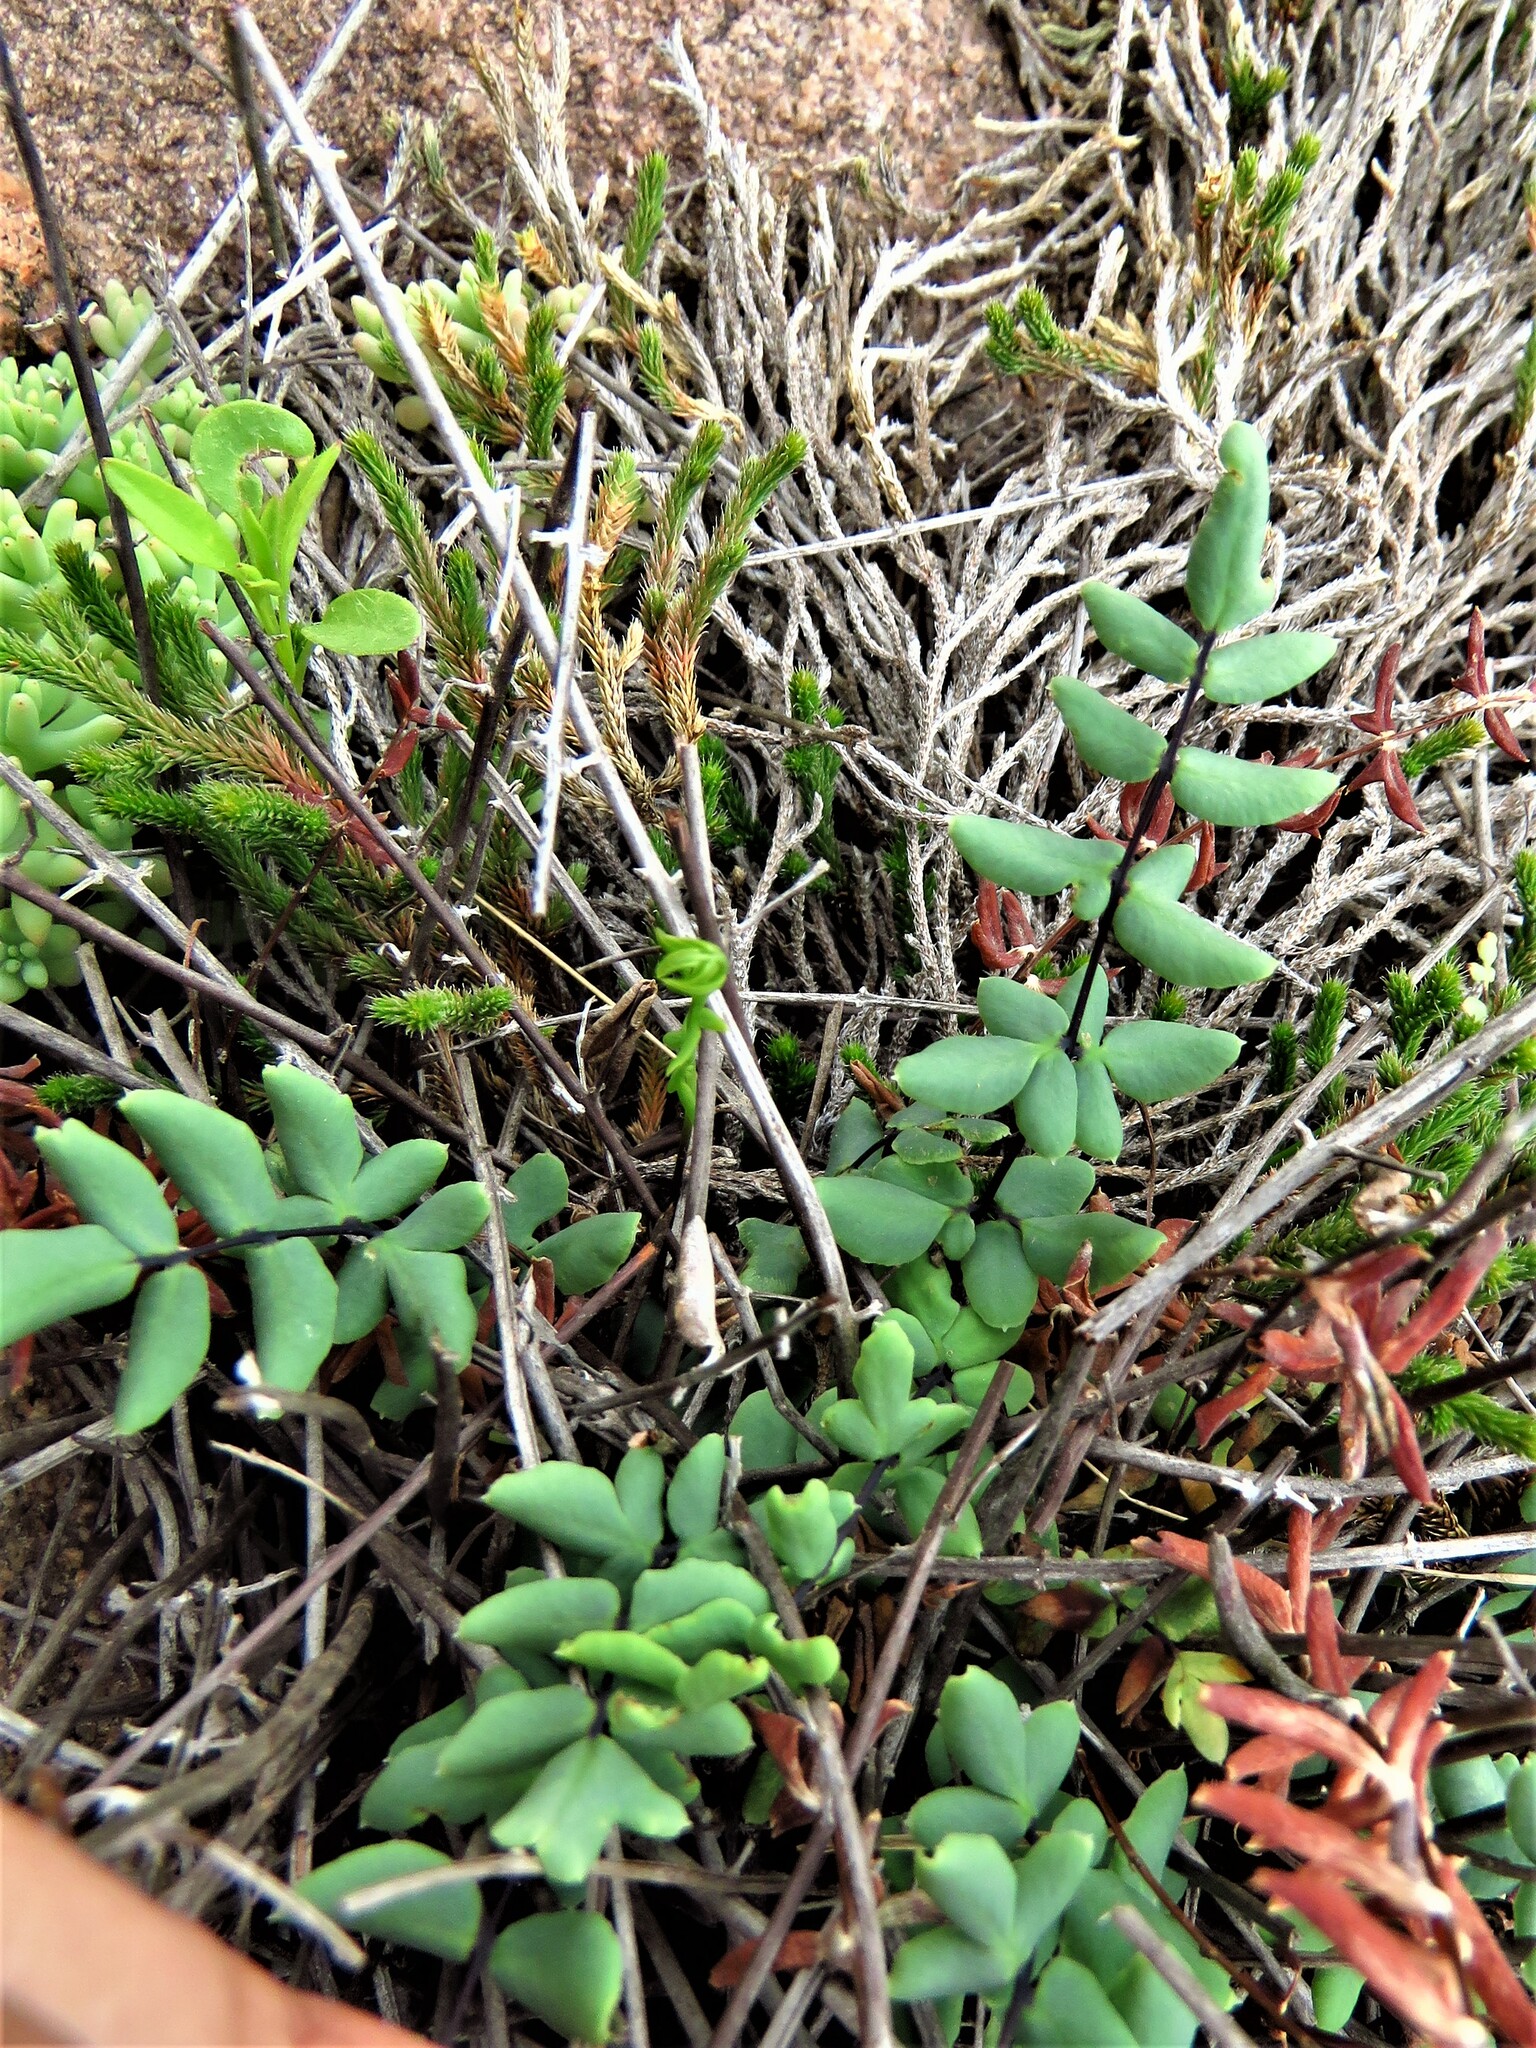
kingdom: Plantae
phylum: Tracheophyta
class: Polypodiopsida
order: Polypodiales
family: Pteridaceae
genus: Pellaea
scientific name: Pellaea wrightiana
